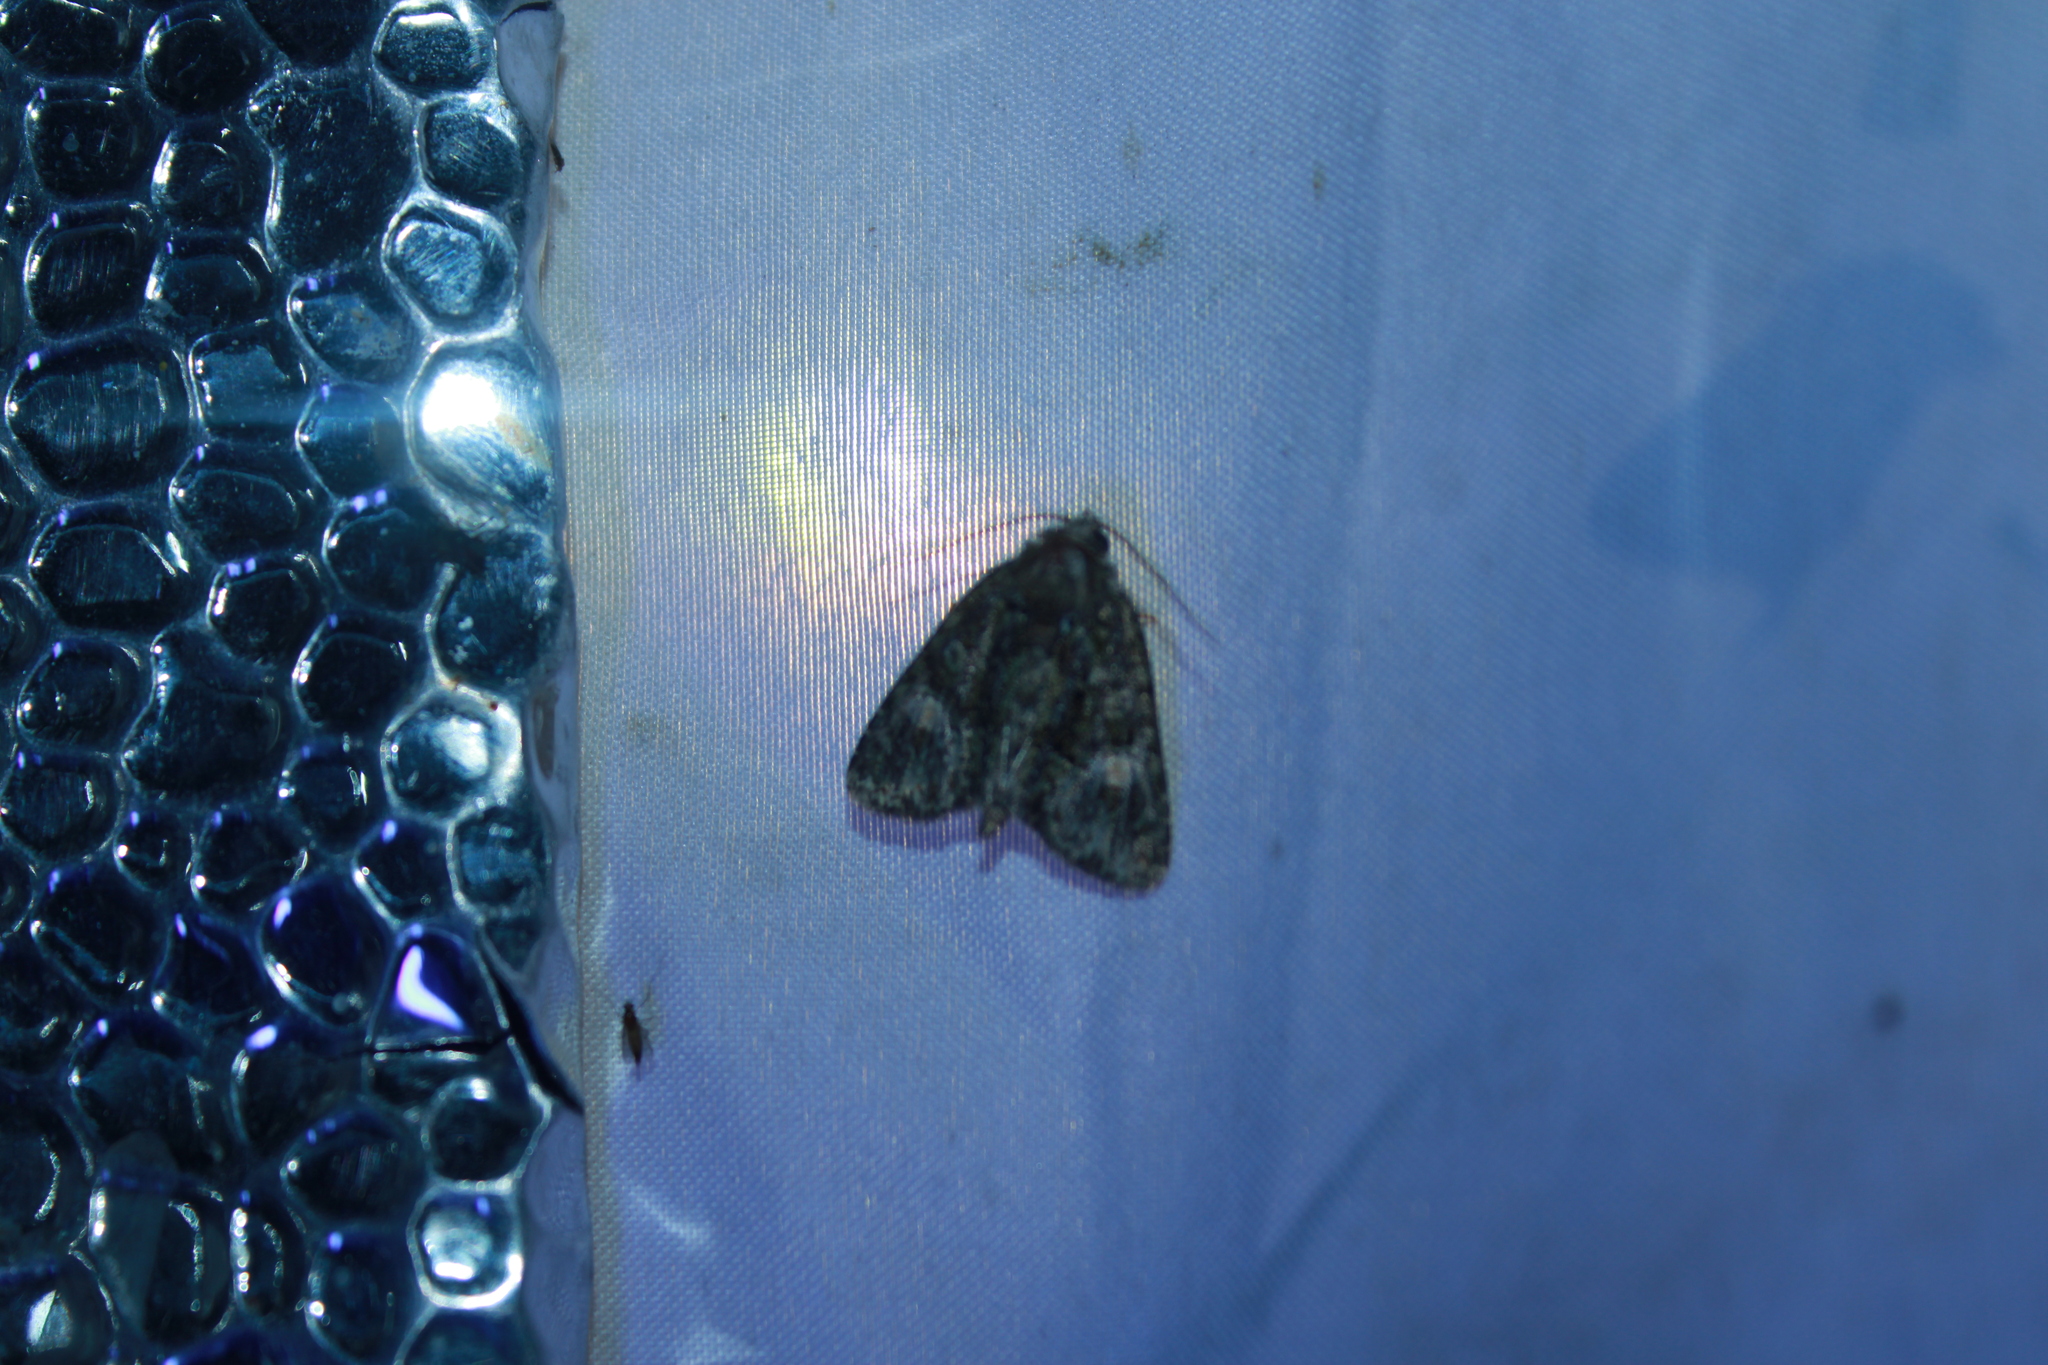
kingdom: Animalia
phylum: Arthropoda
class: Insecta
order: Lepidoptera
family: Noctuidae
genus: Phosphila
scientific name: Phosphila miselioides
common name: Spotted phosphila moth
